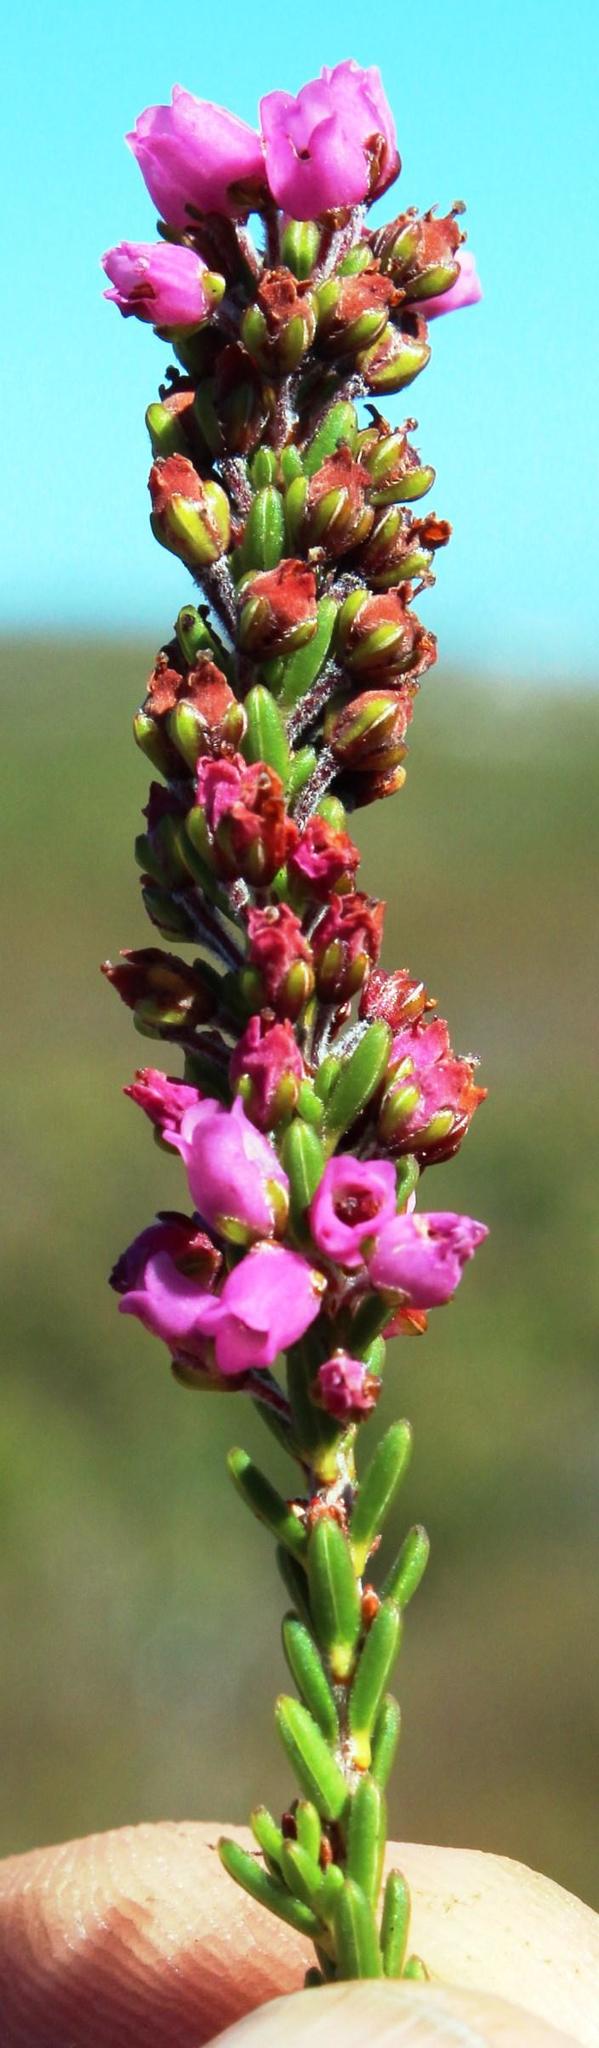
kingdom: Plantae
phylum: Tracheophyta
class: Magnoliopsida
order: Ericales
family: Ericaceae
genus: Erica
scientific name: Erica pulchella
